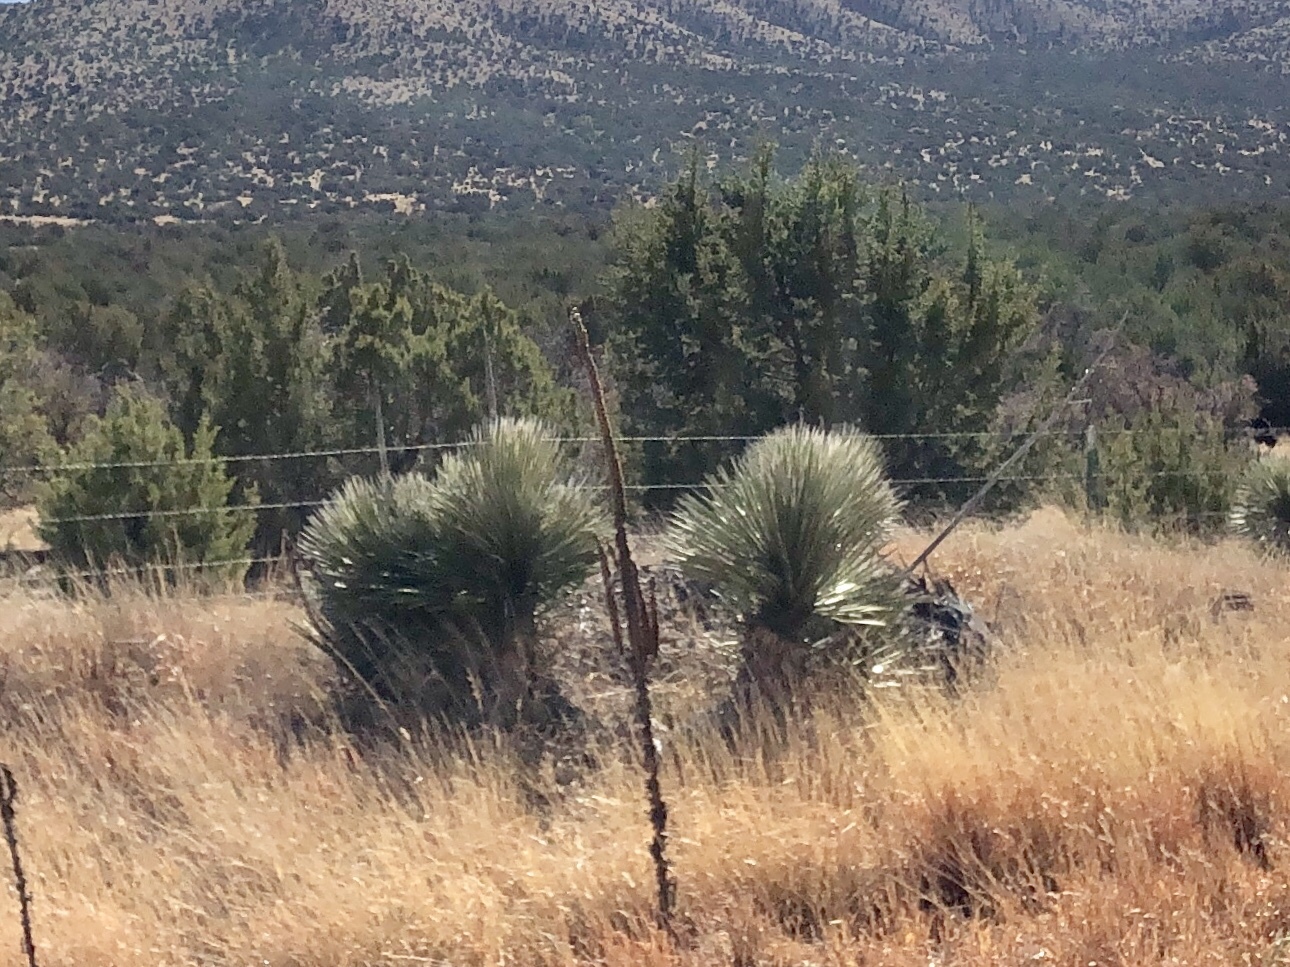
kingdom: Plantae
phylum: Tracheophyta
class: Liliopsida
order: Asparagales
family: Asparagaceae
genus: Yucca
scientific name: Yucca elata
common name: Palmella
